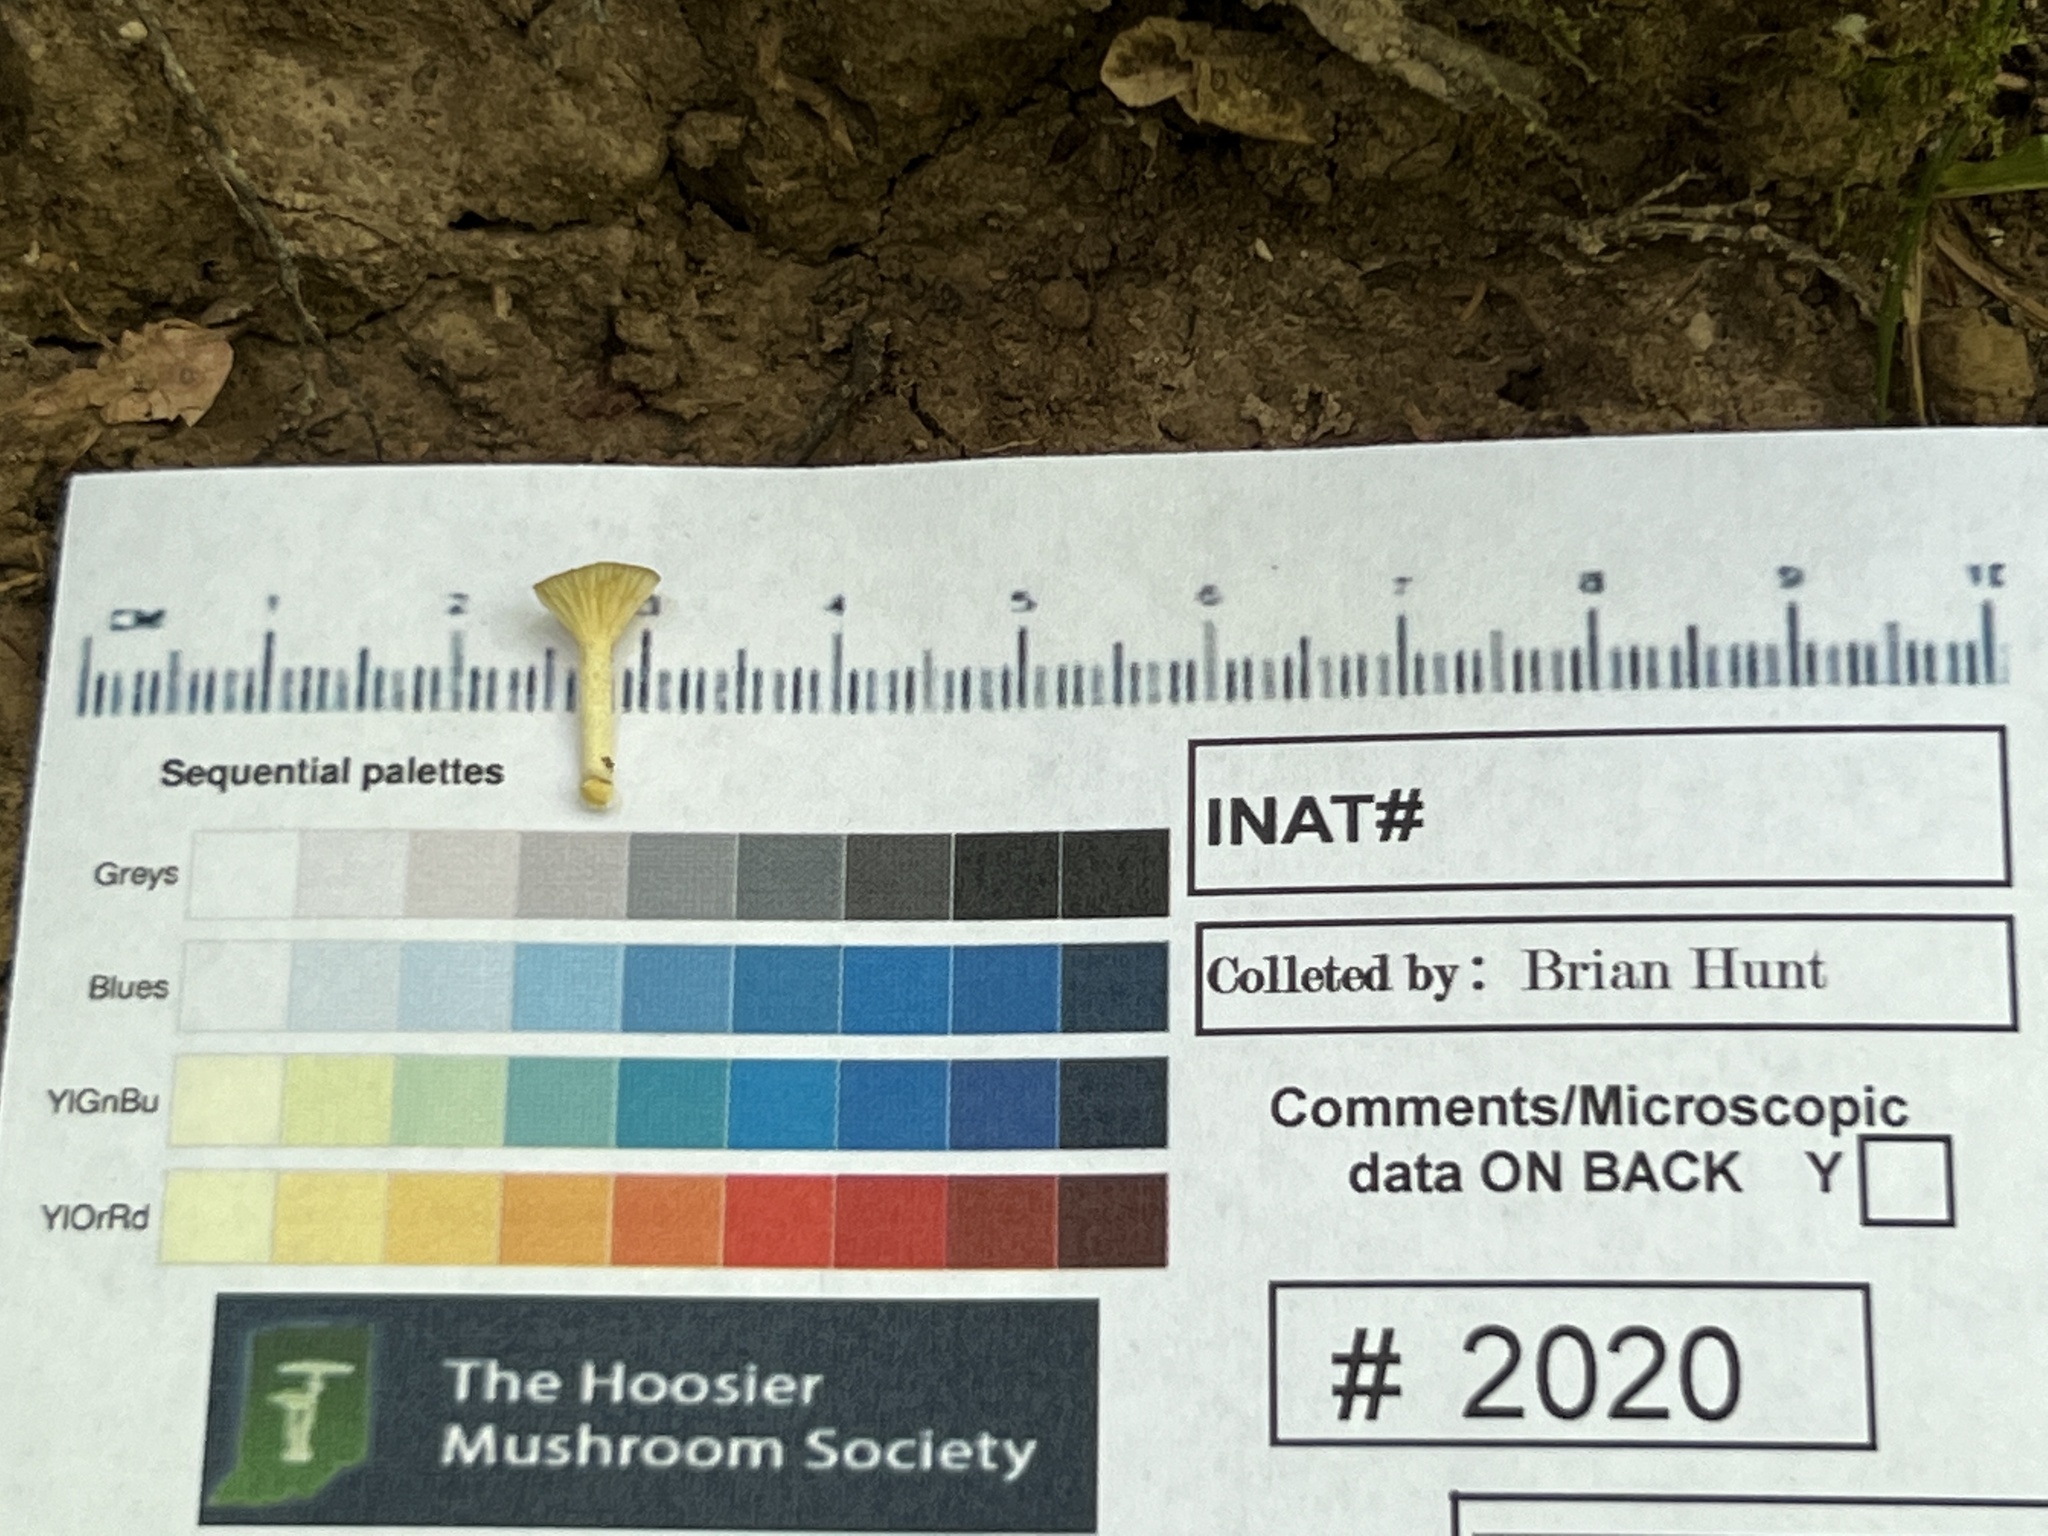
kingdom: Fungi
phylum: Basidiomycota
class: Agaricomycetes
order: Agaricales
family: Marasmiaceae
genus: Gerronema
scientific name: Gerronema strombodes
